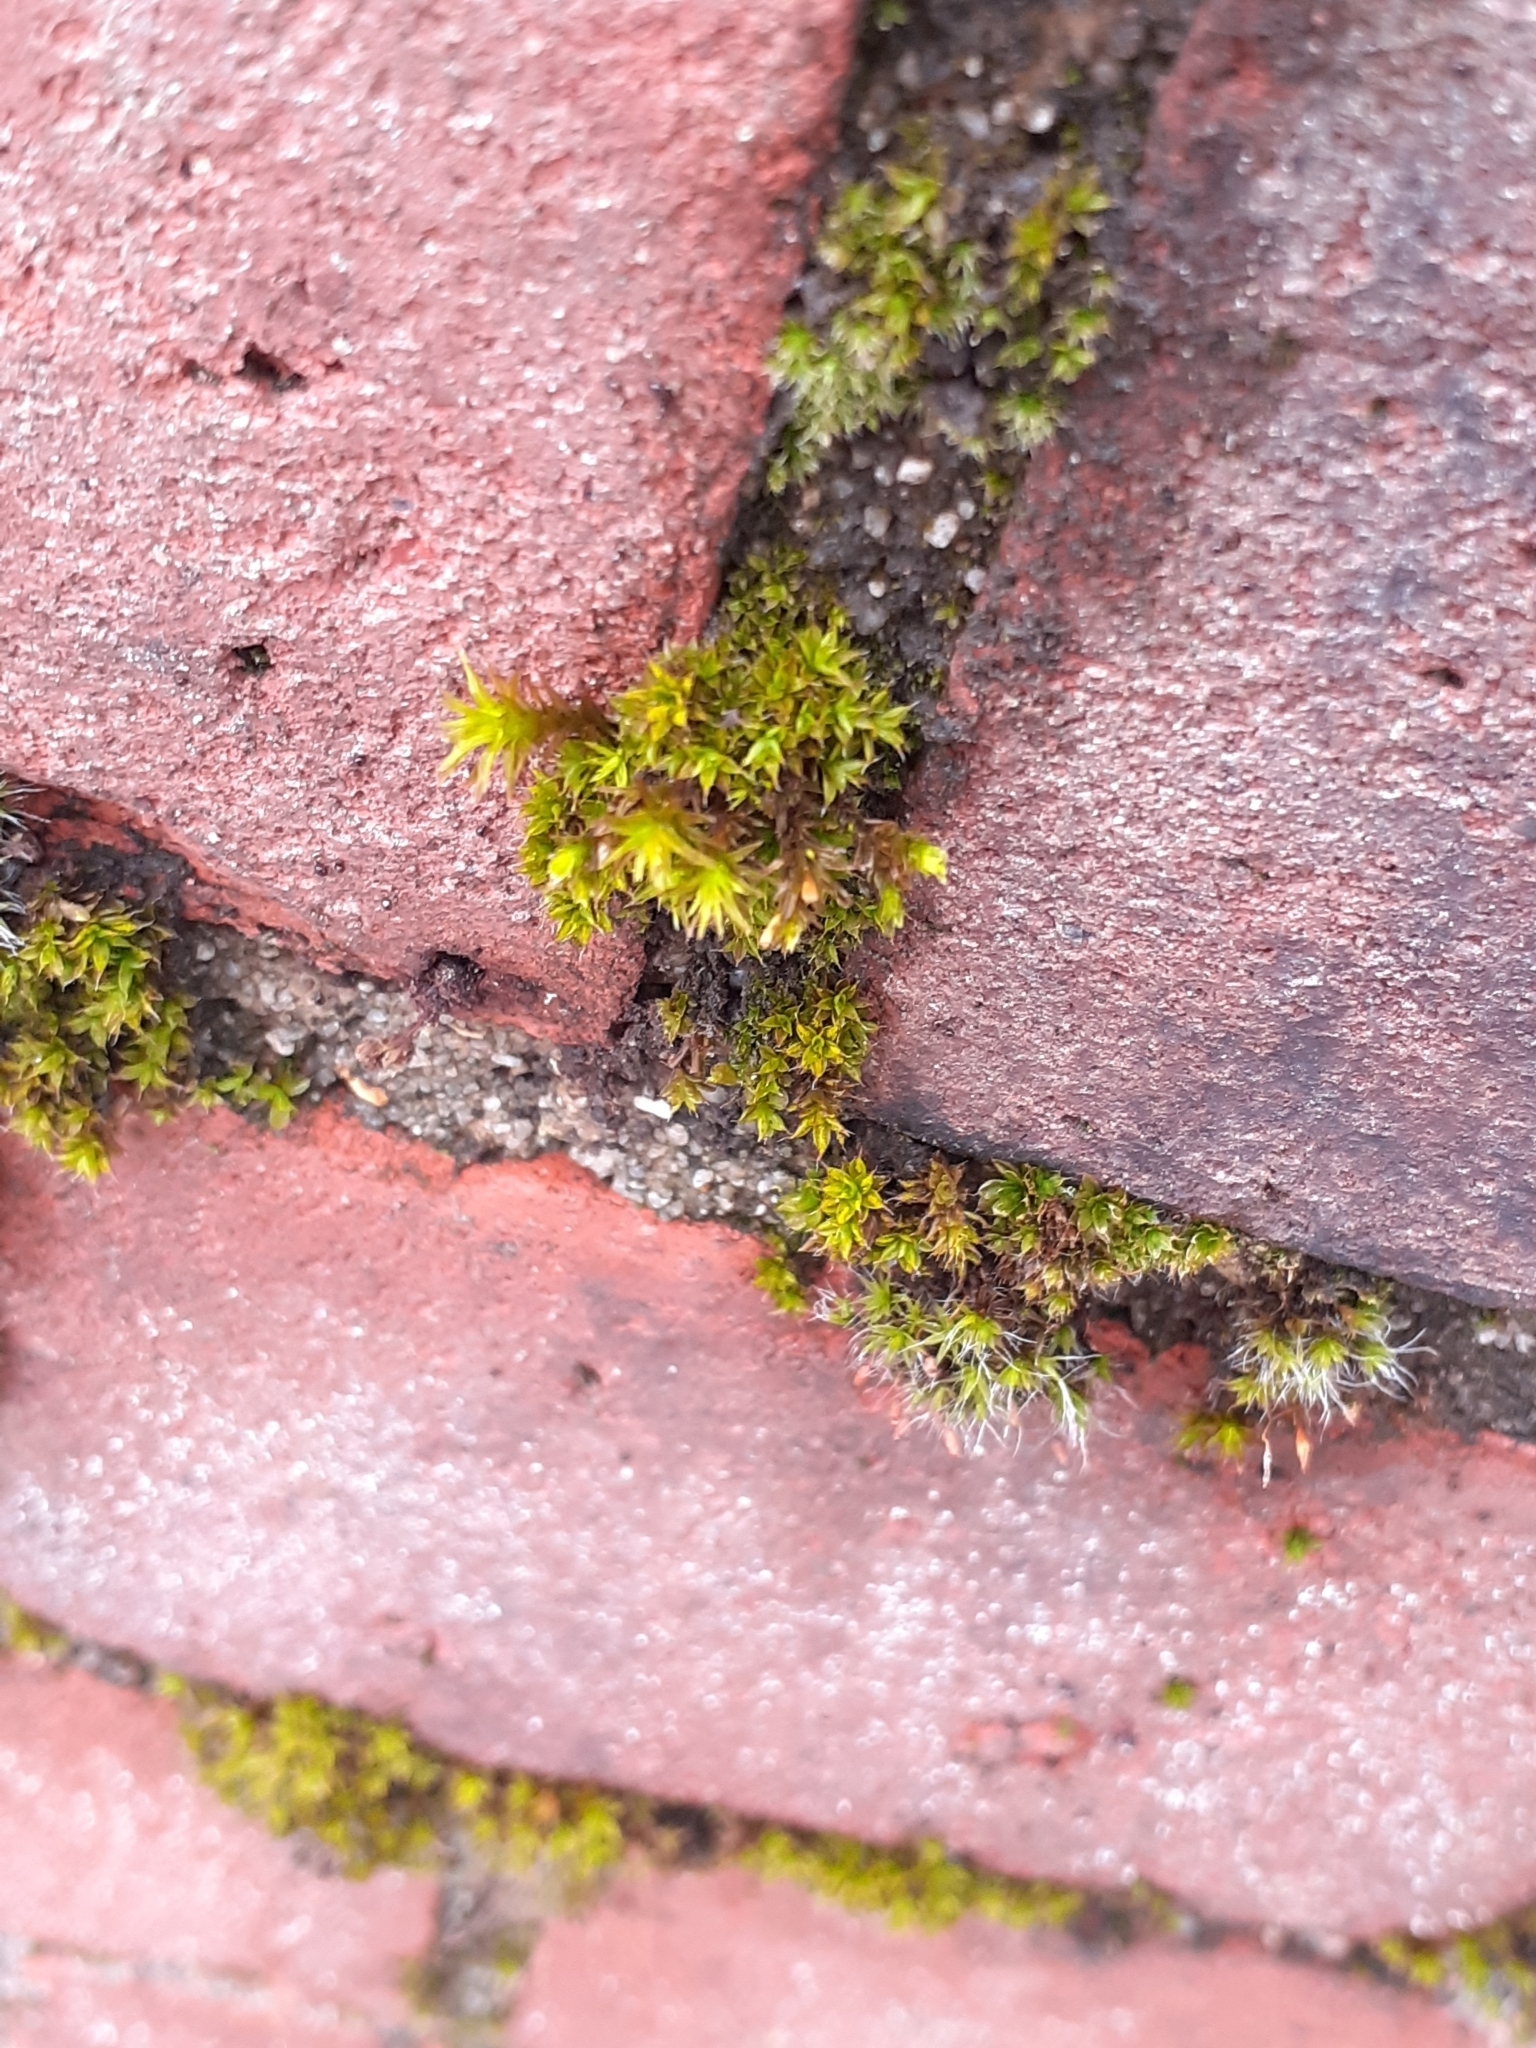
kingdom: Plantae
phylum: Bryophyta
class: Bryopsida
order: Pottiales
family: Pottiaceae
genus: Syntrichia
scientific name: Syntrichia papillosa
